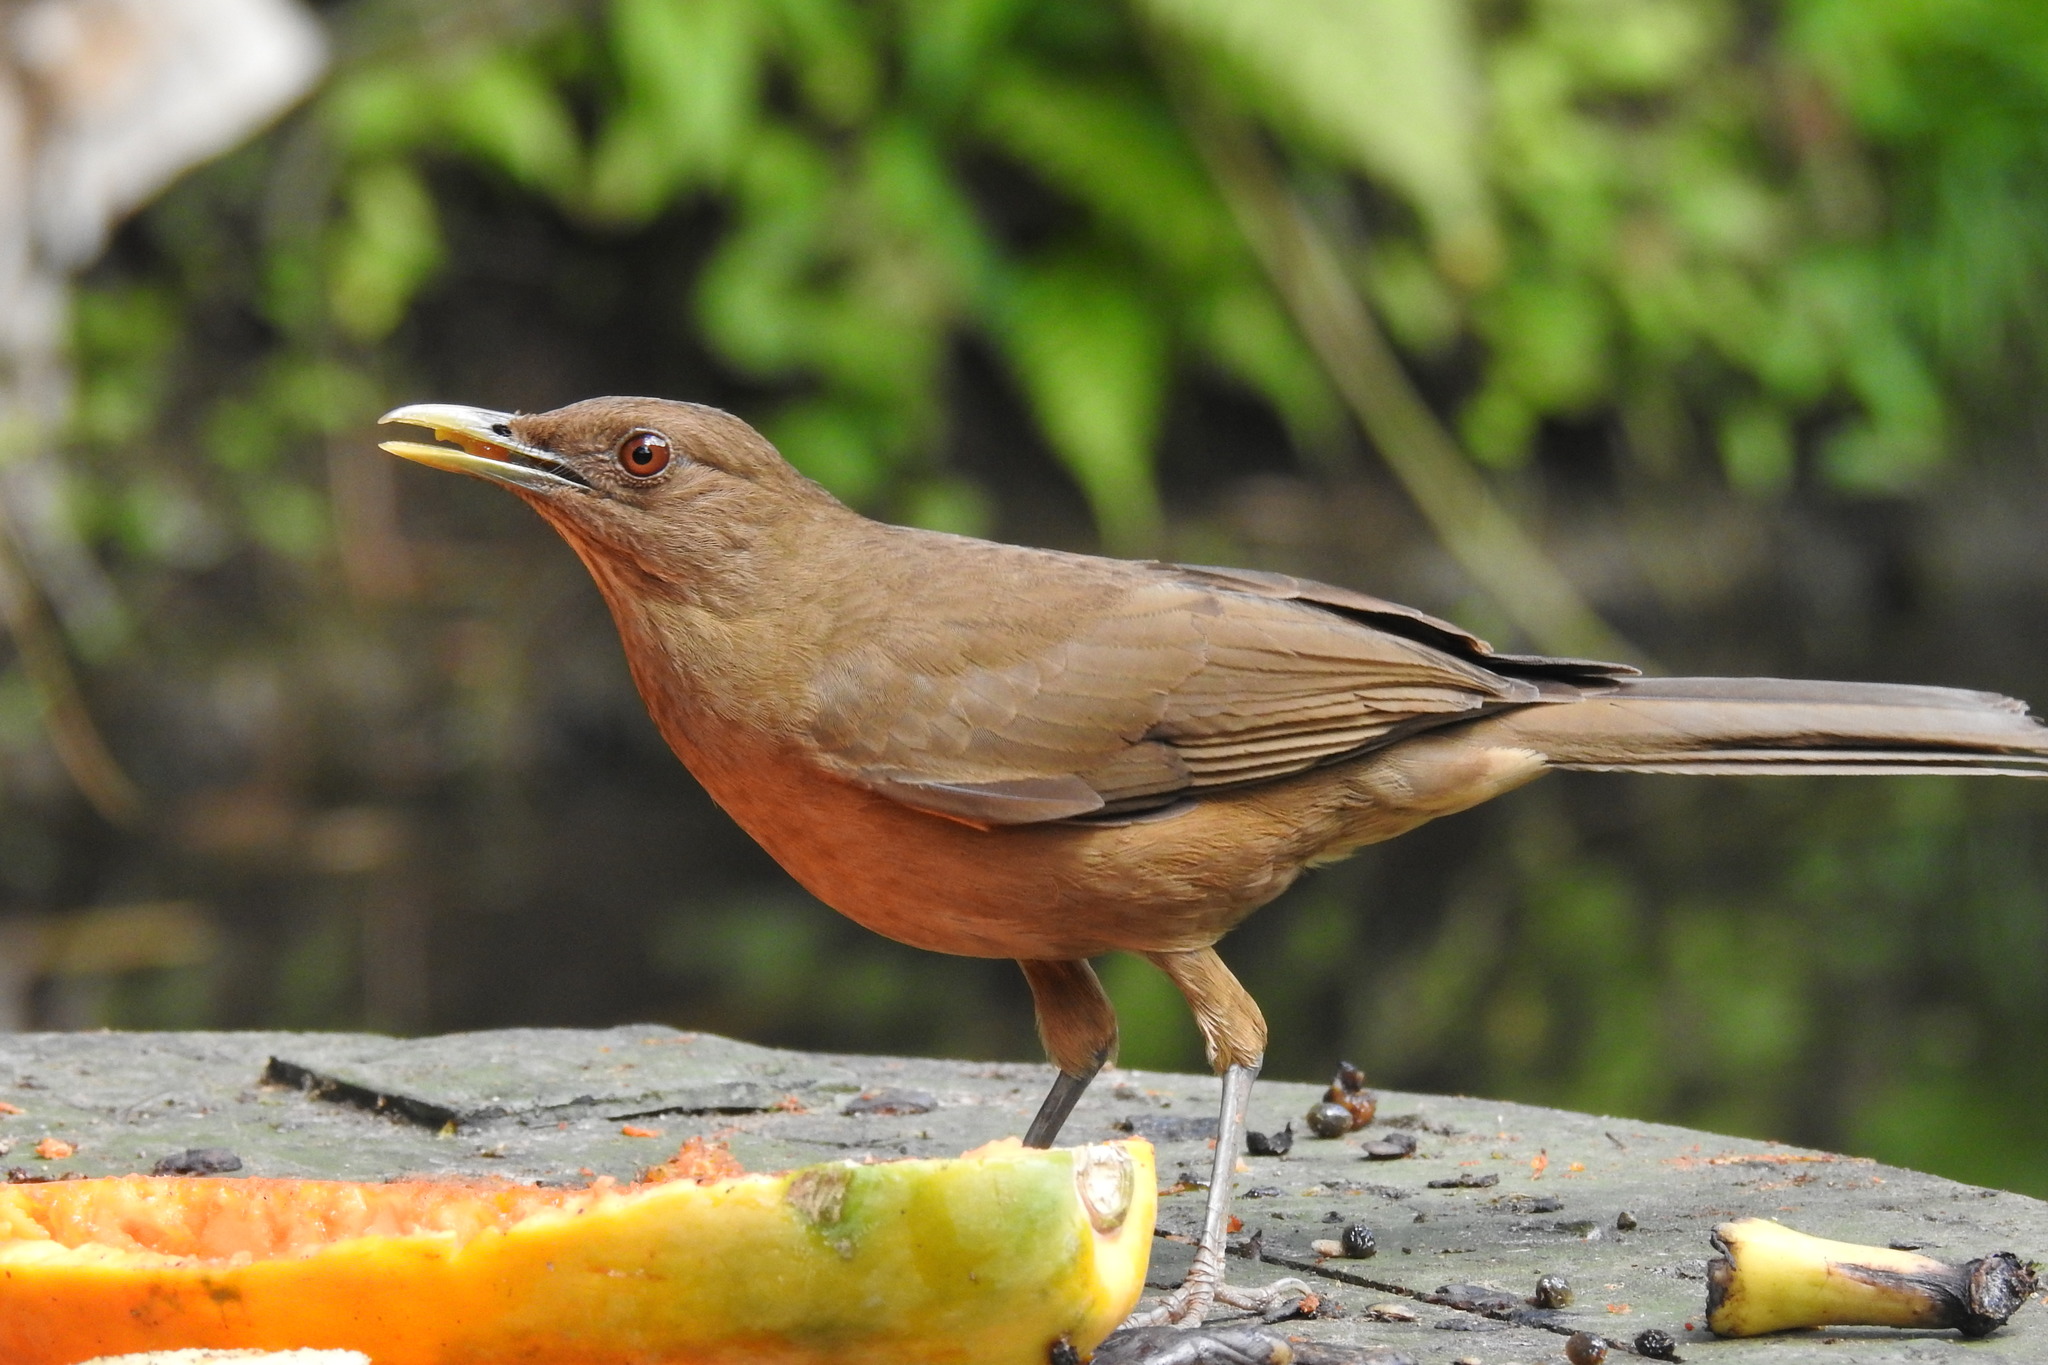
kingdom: Animalia
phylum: Chordata
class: Aves
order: Passeriformes
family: Turdidae
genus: Turdus
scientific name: Turdus grayi
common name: Clay-colored thrush
